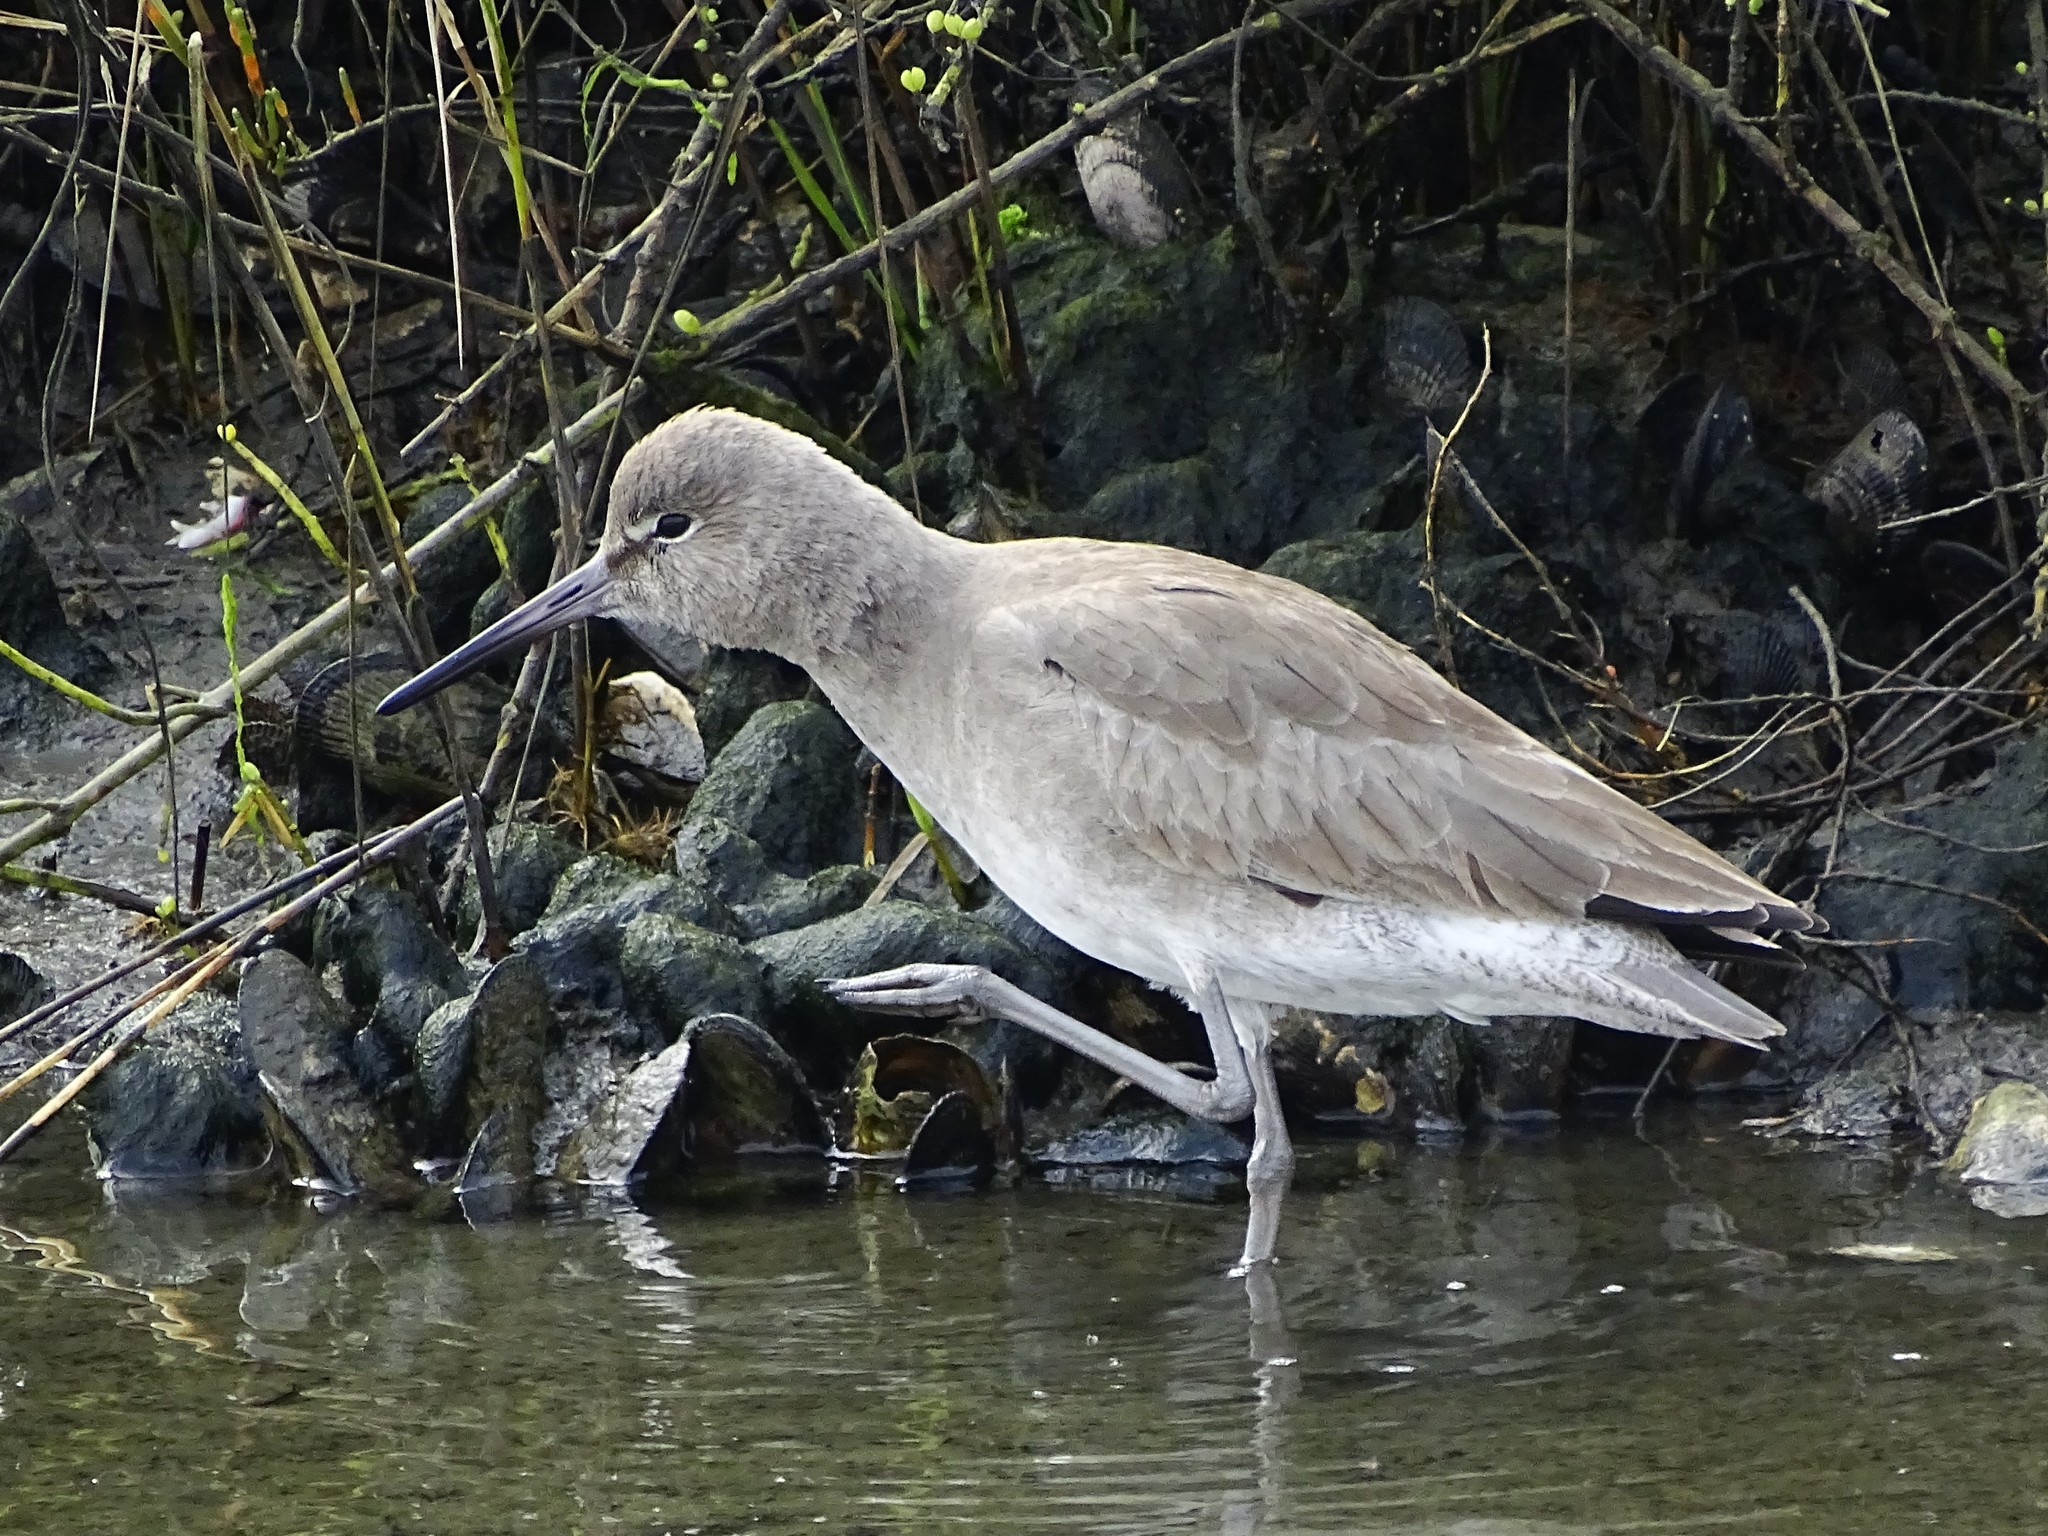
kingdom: Animalia
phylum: Chordata
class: Aves
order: Charadriiformes
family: Scolopacidae
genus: Tringa
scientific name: Tringa semipalmata
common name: Willet
